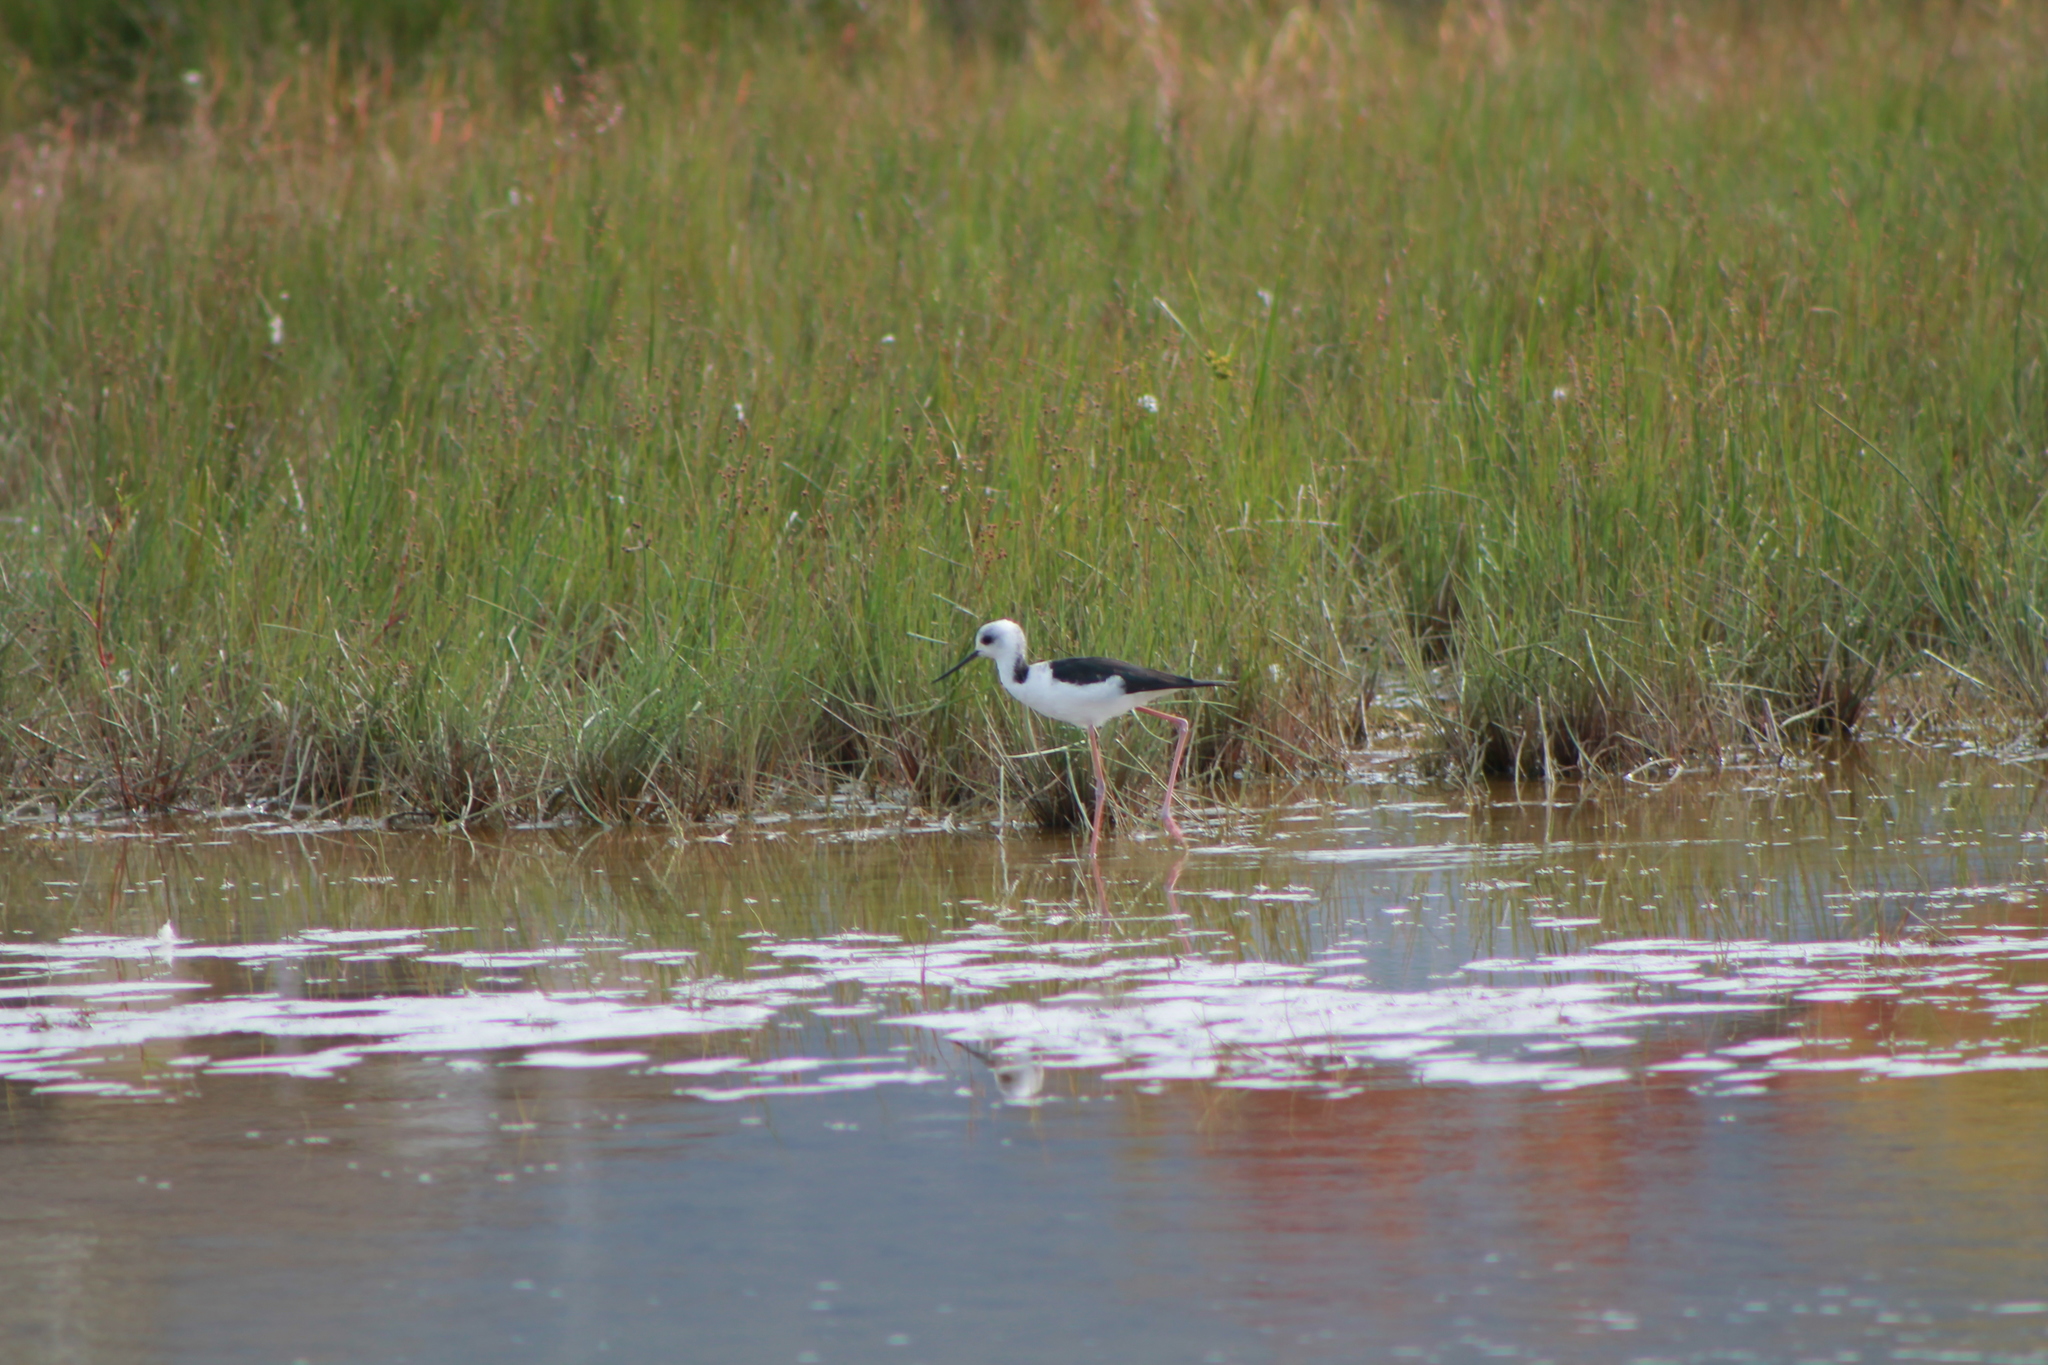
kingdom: Animalia
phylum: Chordata
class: Aves
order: Charadriiformes
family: Recurvirostridae
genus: Himantopus
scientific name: Himantopus leucocephalus
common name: White-headed stilt
